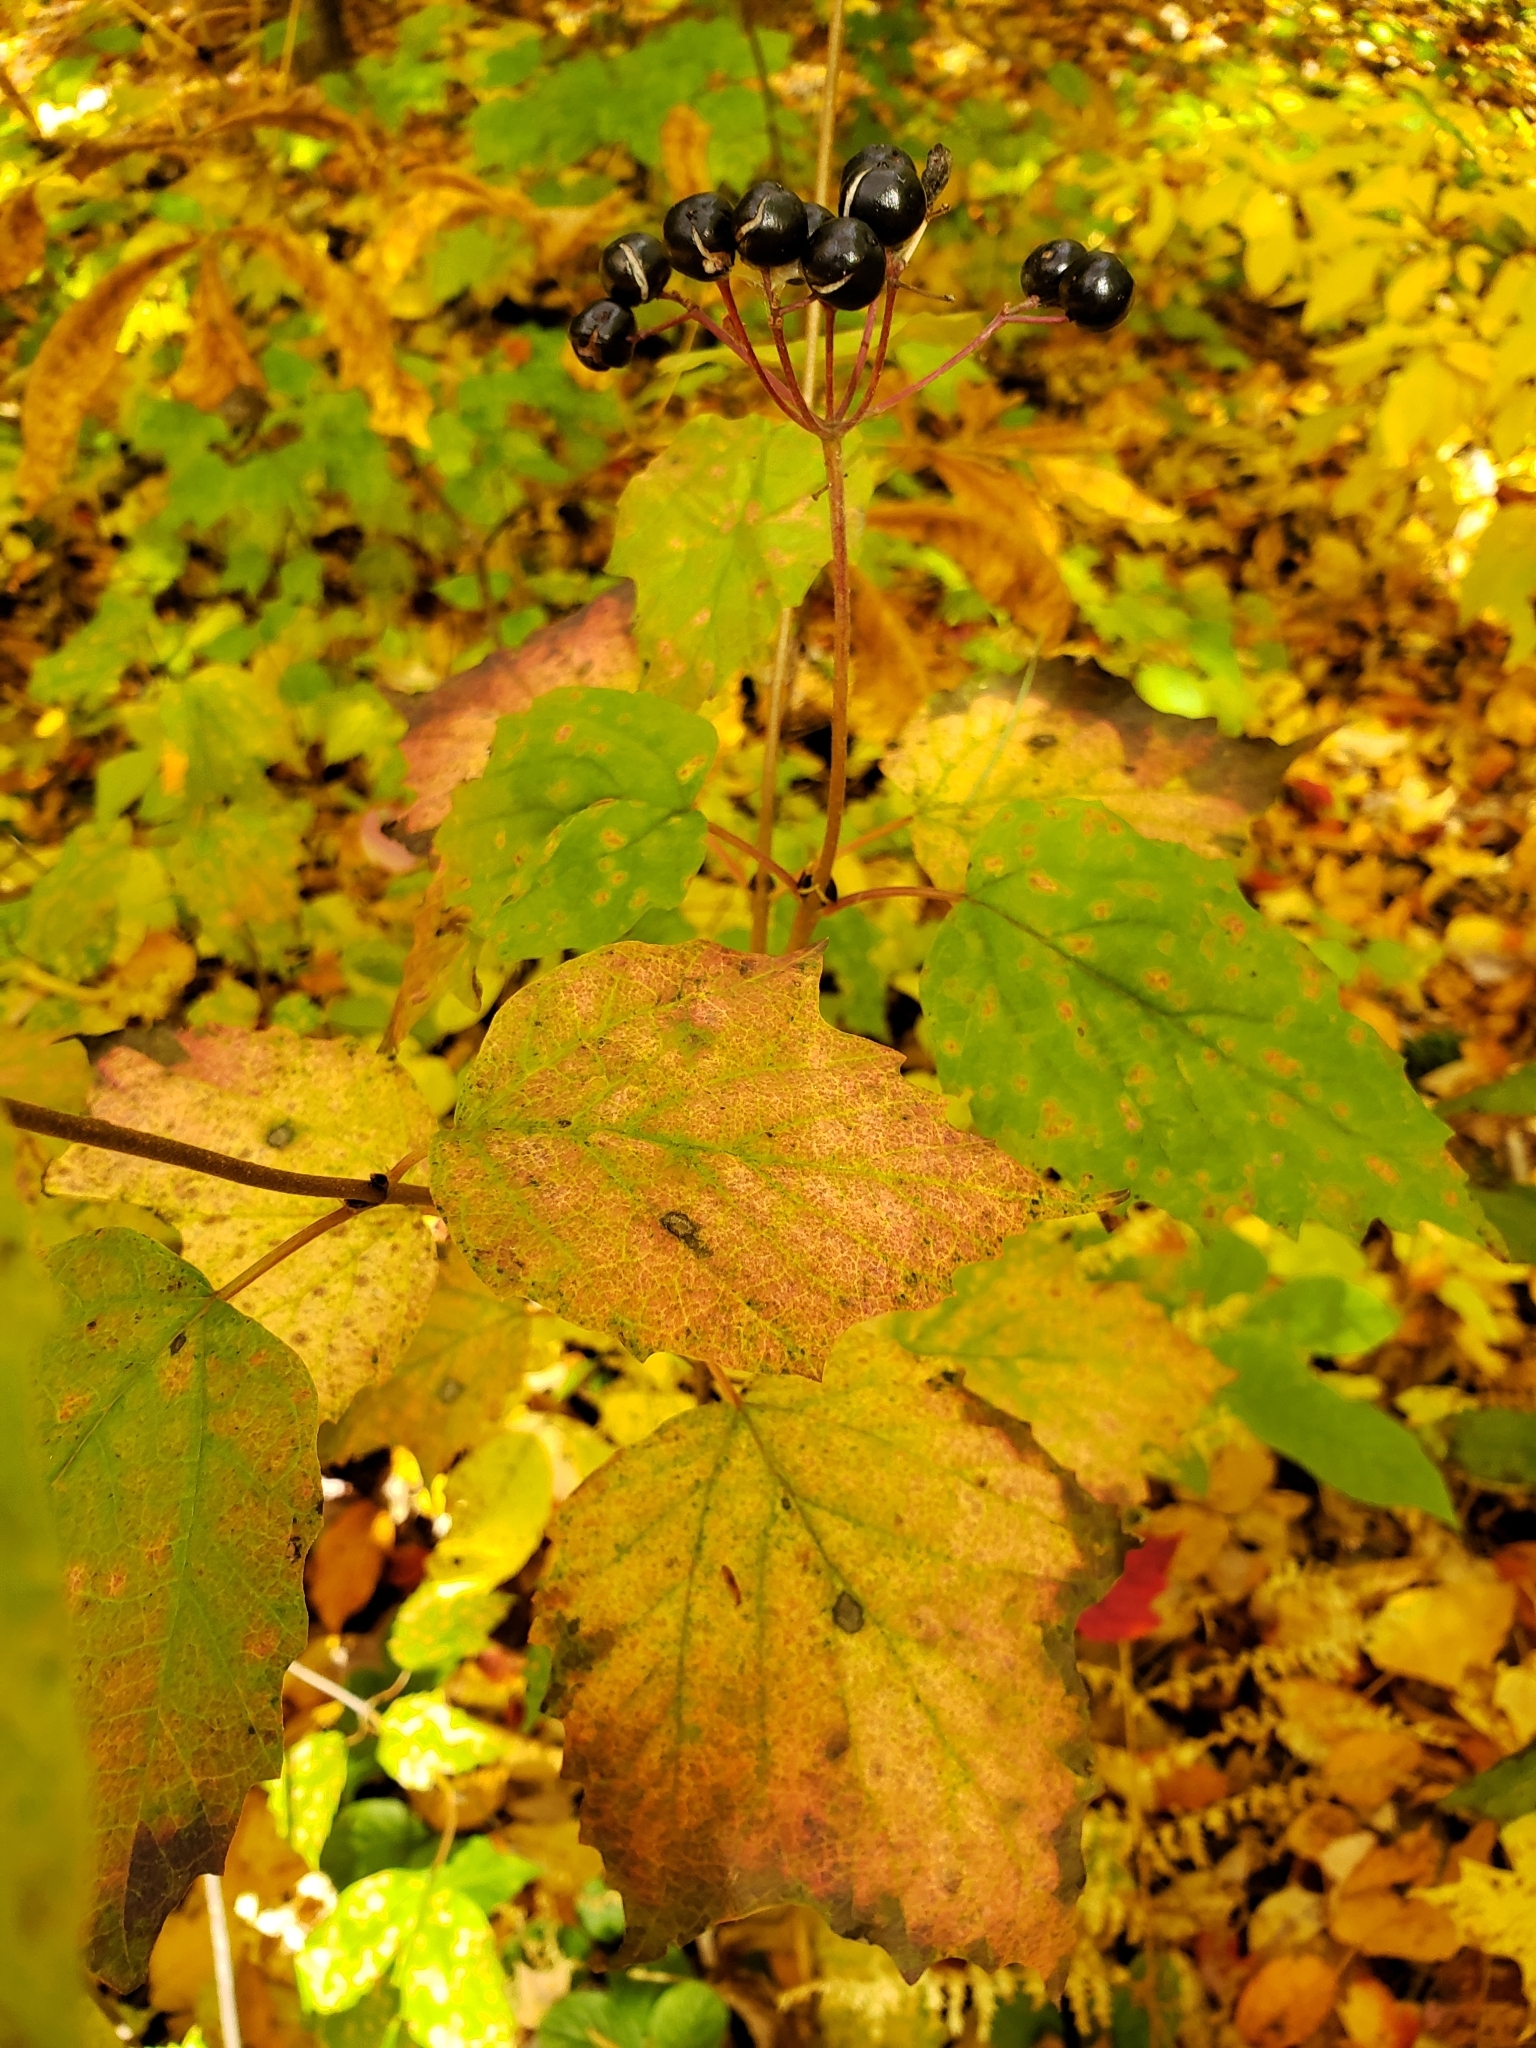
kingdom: Plantae
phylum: Tracheophyta
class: Magnoliopsida
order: Dipsacales
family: Viburnaceae
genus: Viburnum
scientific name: Viburnum acerifolium
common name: Dockmackie
